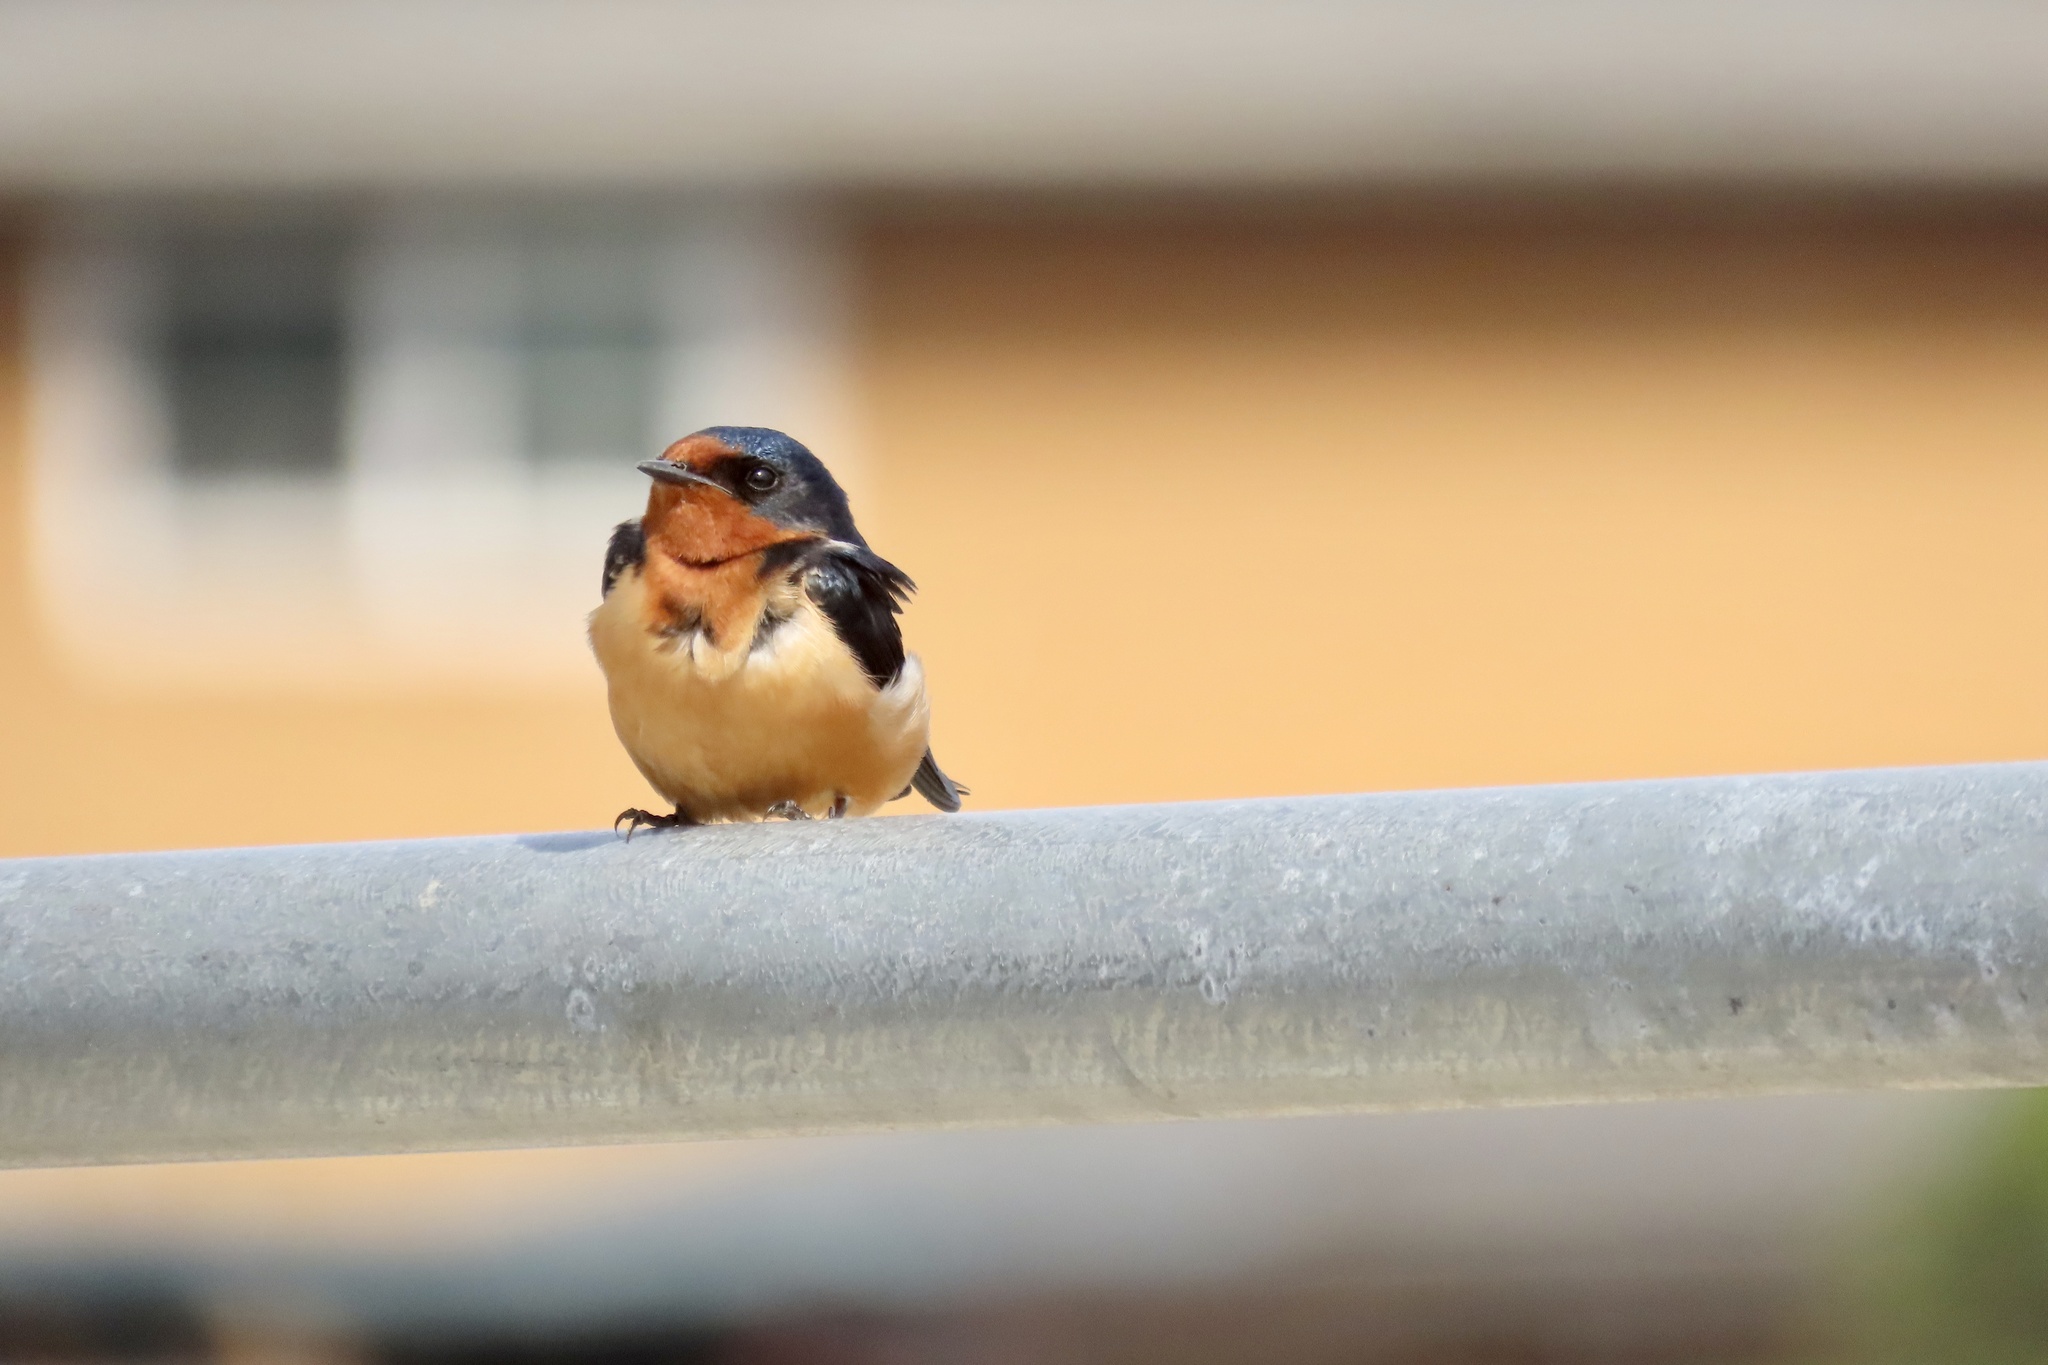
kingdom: Animalia
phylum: Chordata
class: Aves
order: Passeriformes
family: Hirundinidae
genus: Hirundo
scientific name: Hirundo rustica
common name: Barn swallow
